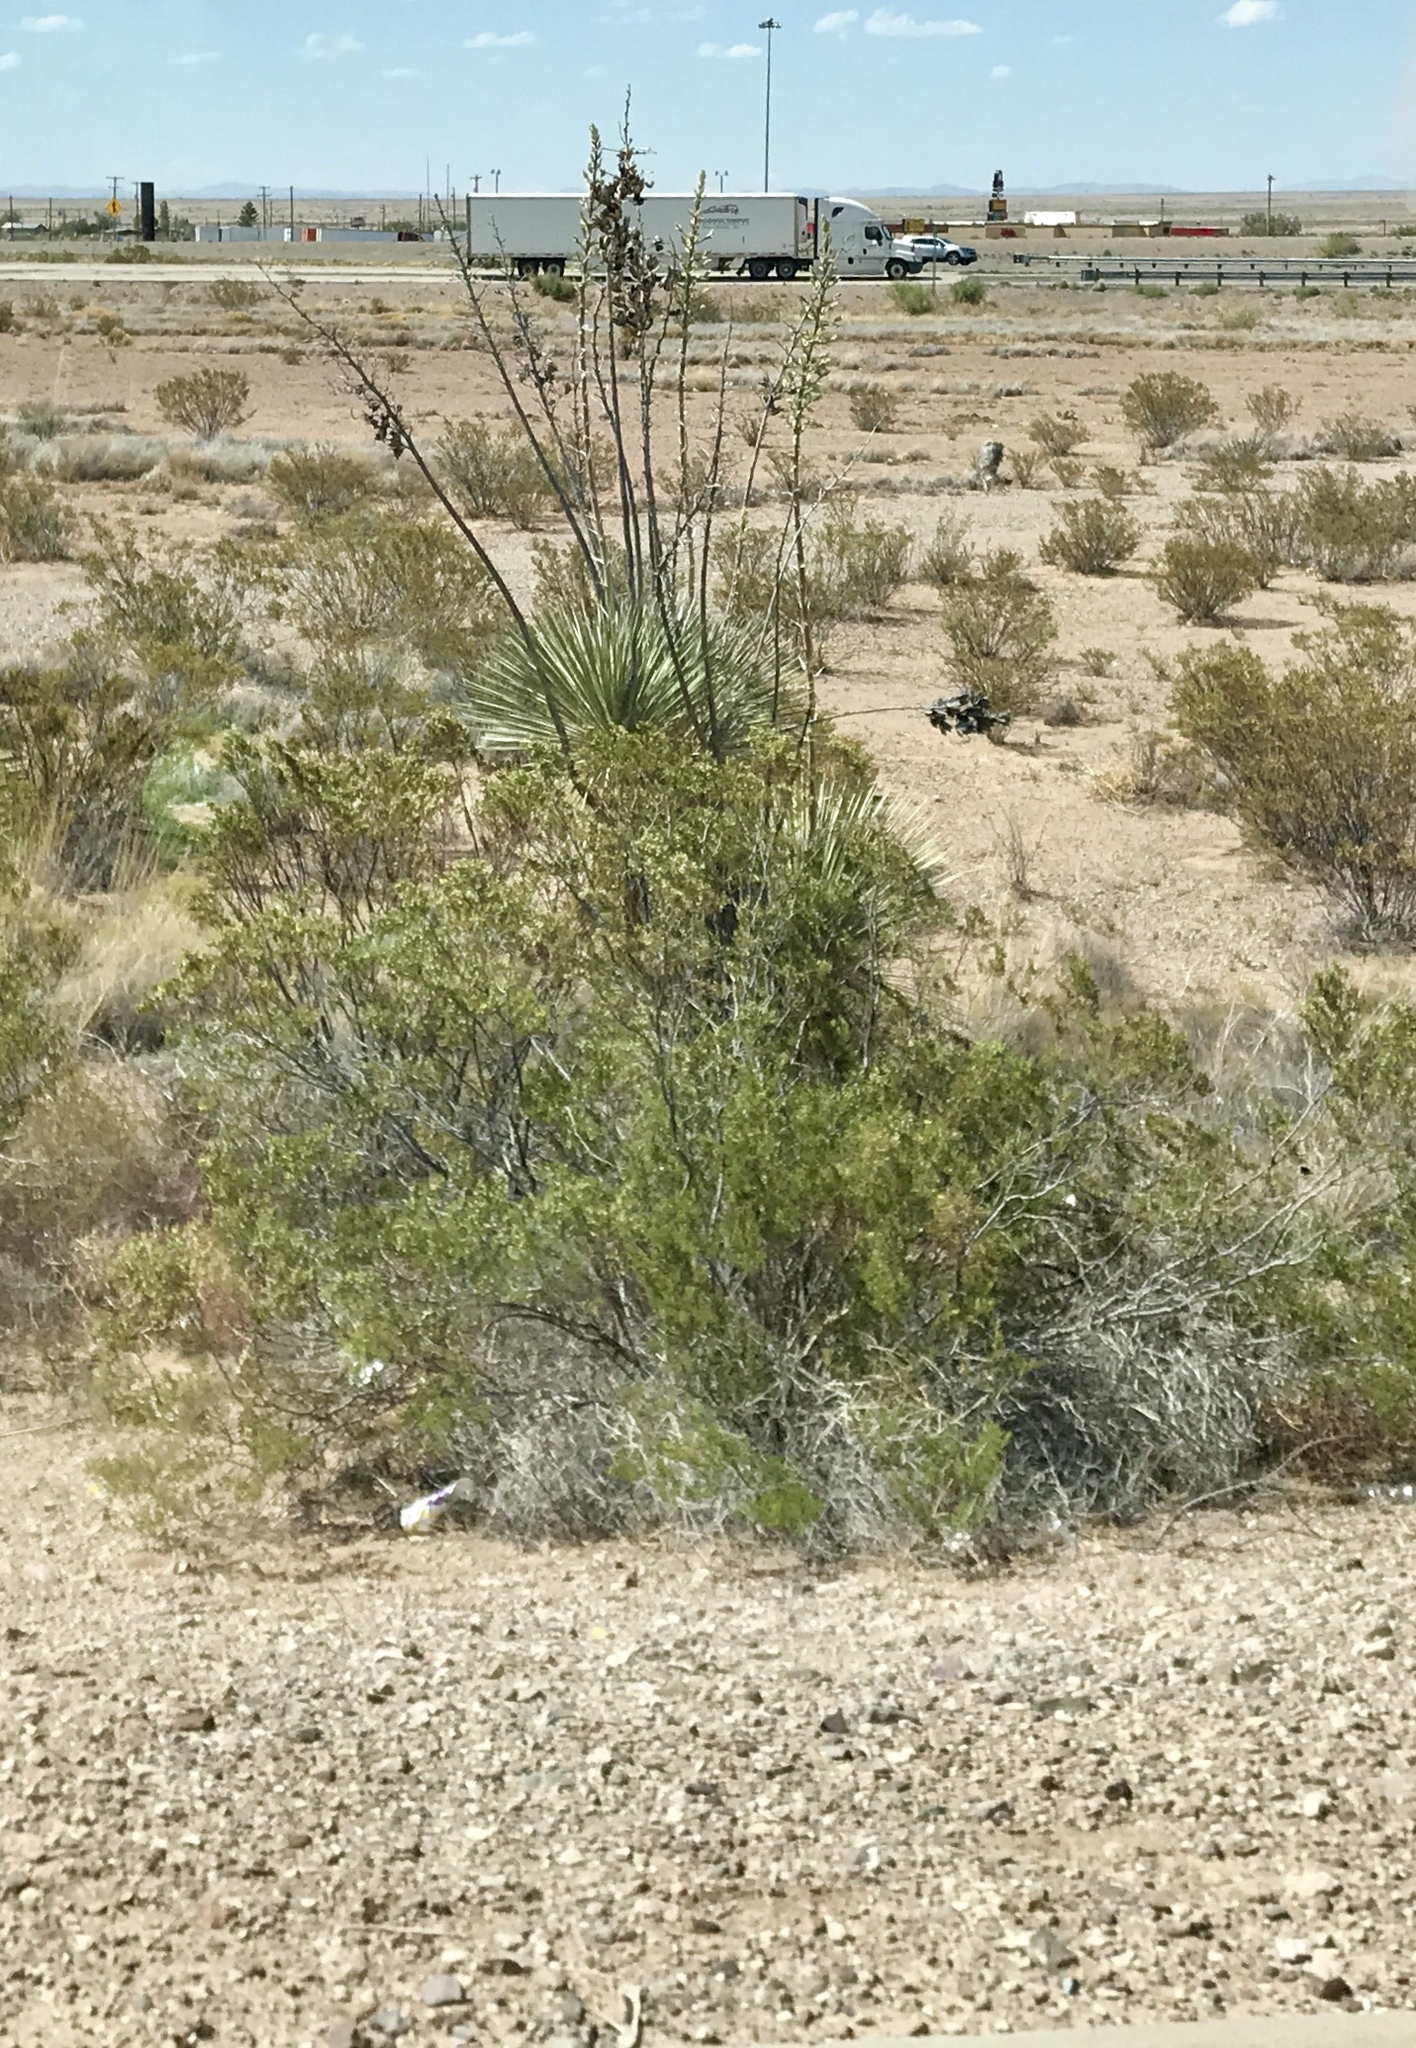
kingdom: Plantae
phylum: Tracheophyta
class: Magnoliopsida
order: Zygophyllales
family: Zygophyllaceae
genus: Larrea
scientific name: Larrea tridentata
